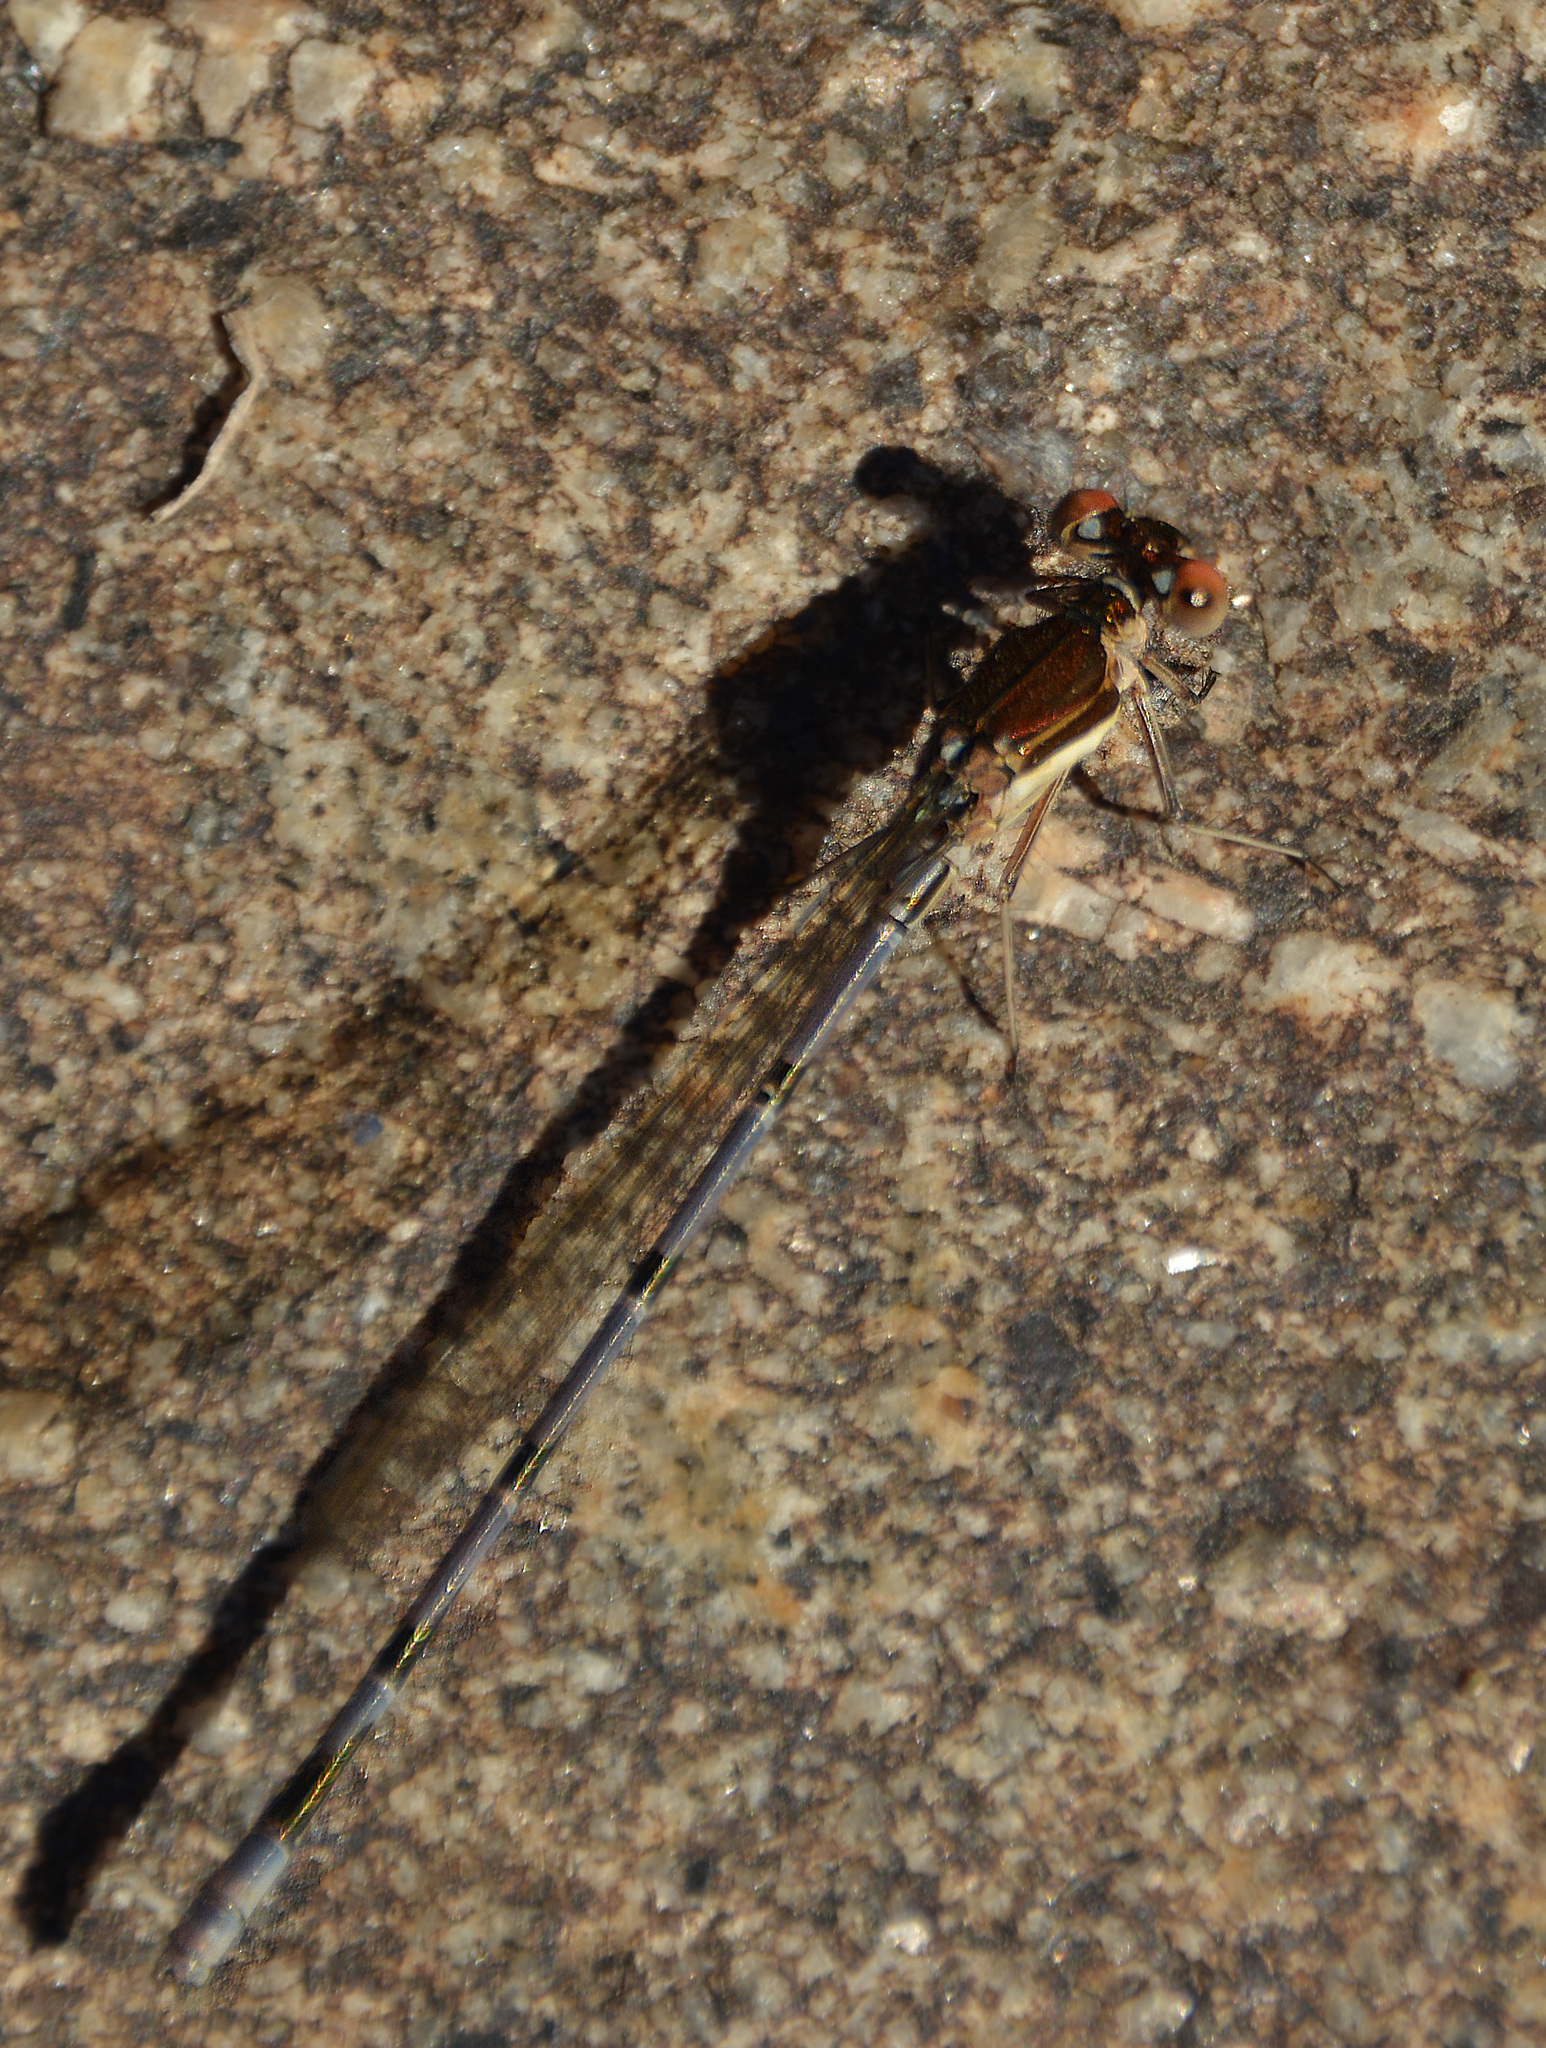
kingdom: Animalia
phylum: Arthropoda
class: Insecta
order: Odonata
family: Coenagrionidae
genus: Argia
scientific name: Argia joergenseni
